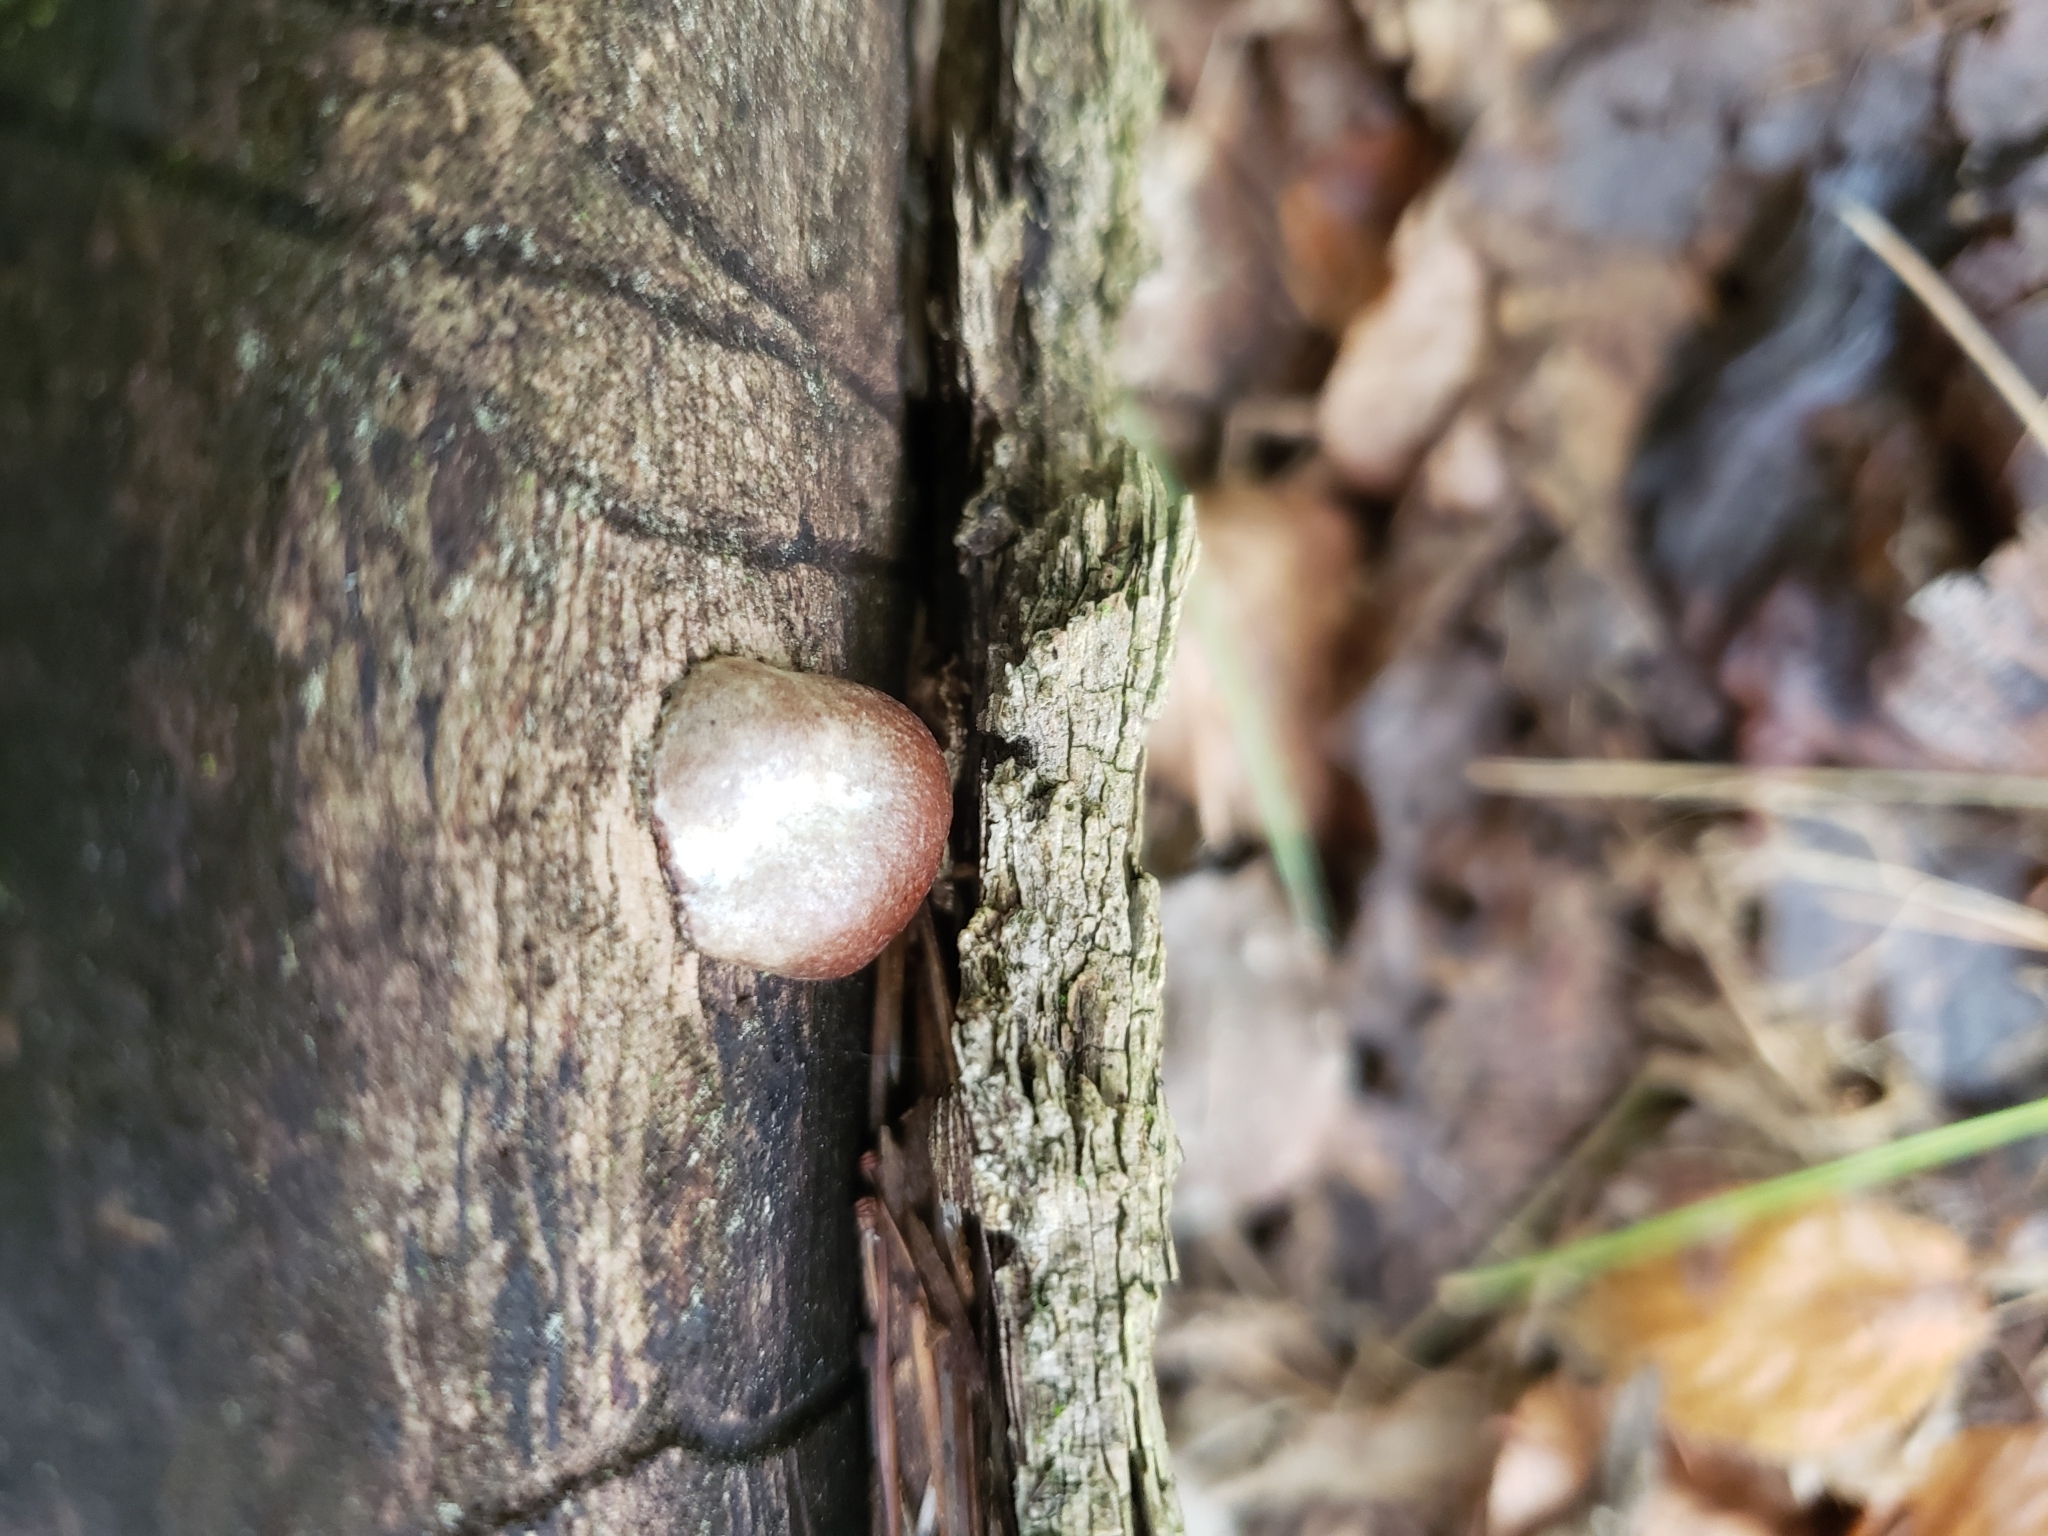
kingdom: Protozoa
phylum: Mycetozoa
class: Myxomycetes
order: Cribrariales
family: Tubiferaceae
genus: Reticularia
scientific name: Reticularia splendens
